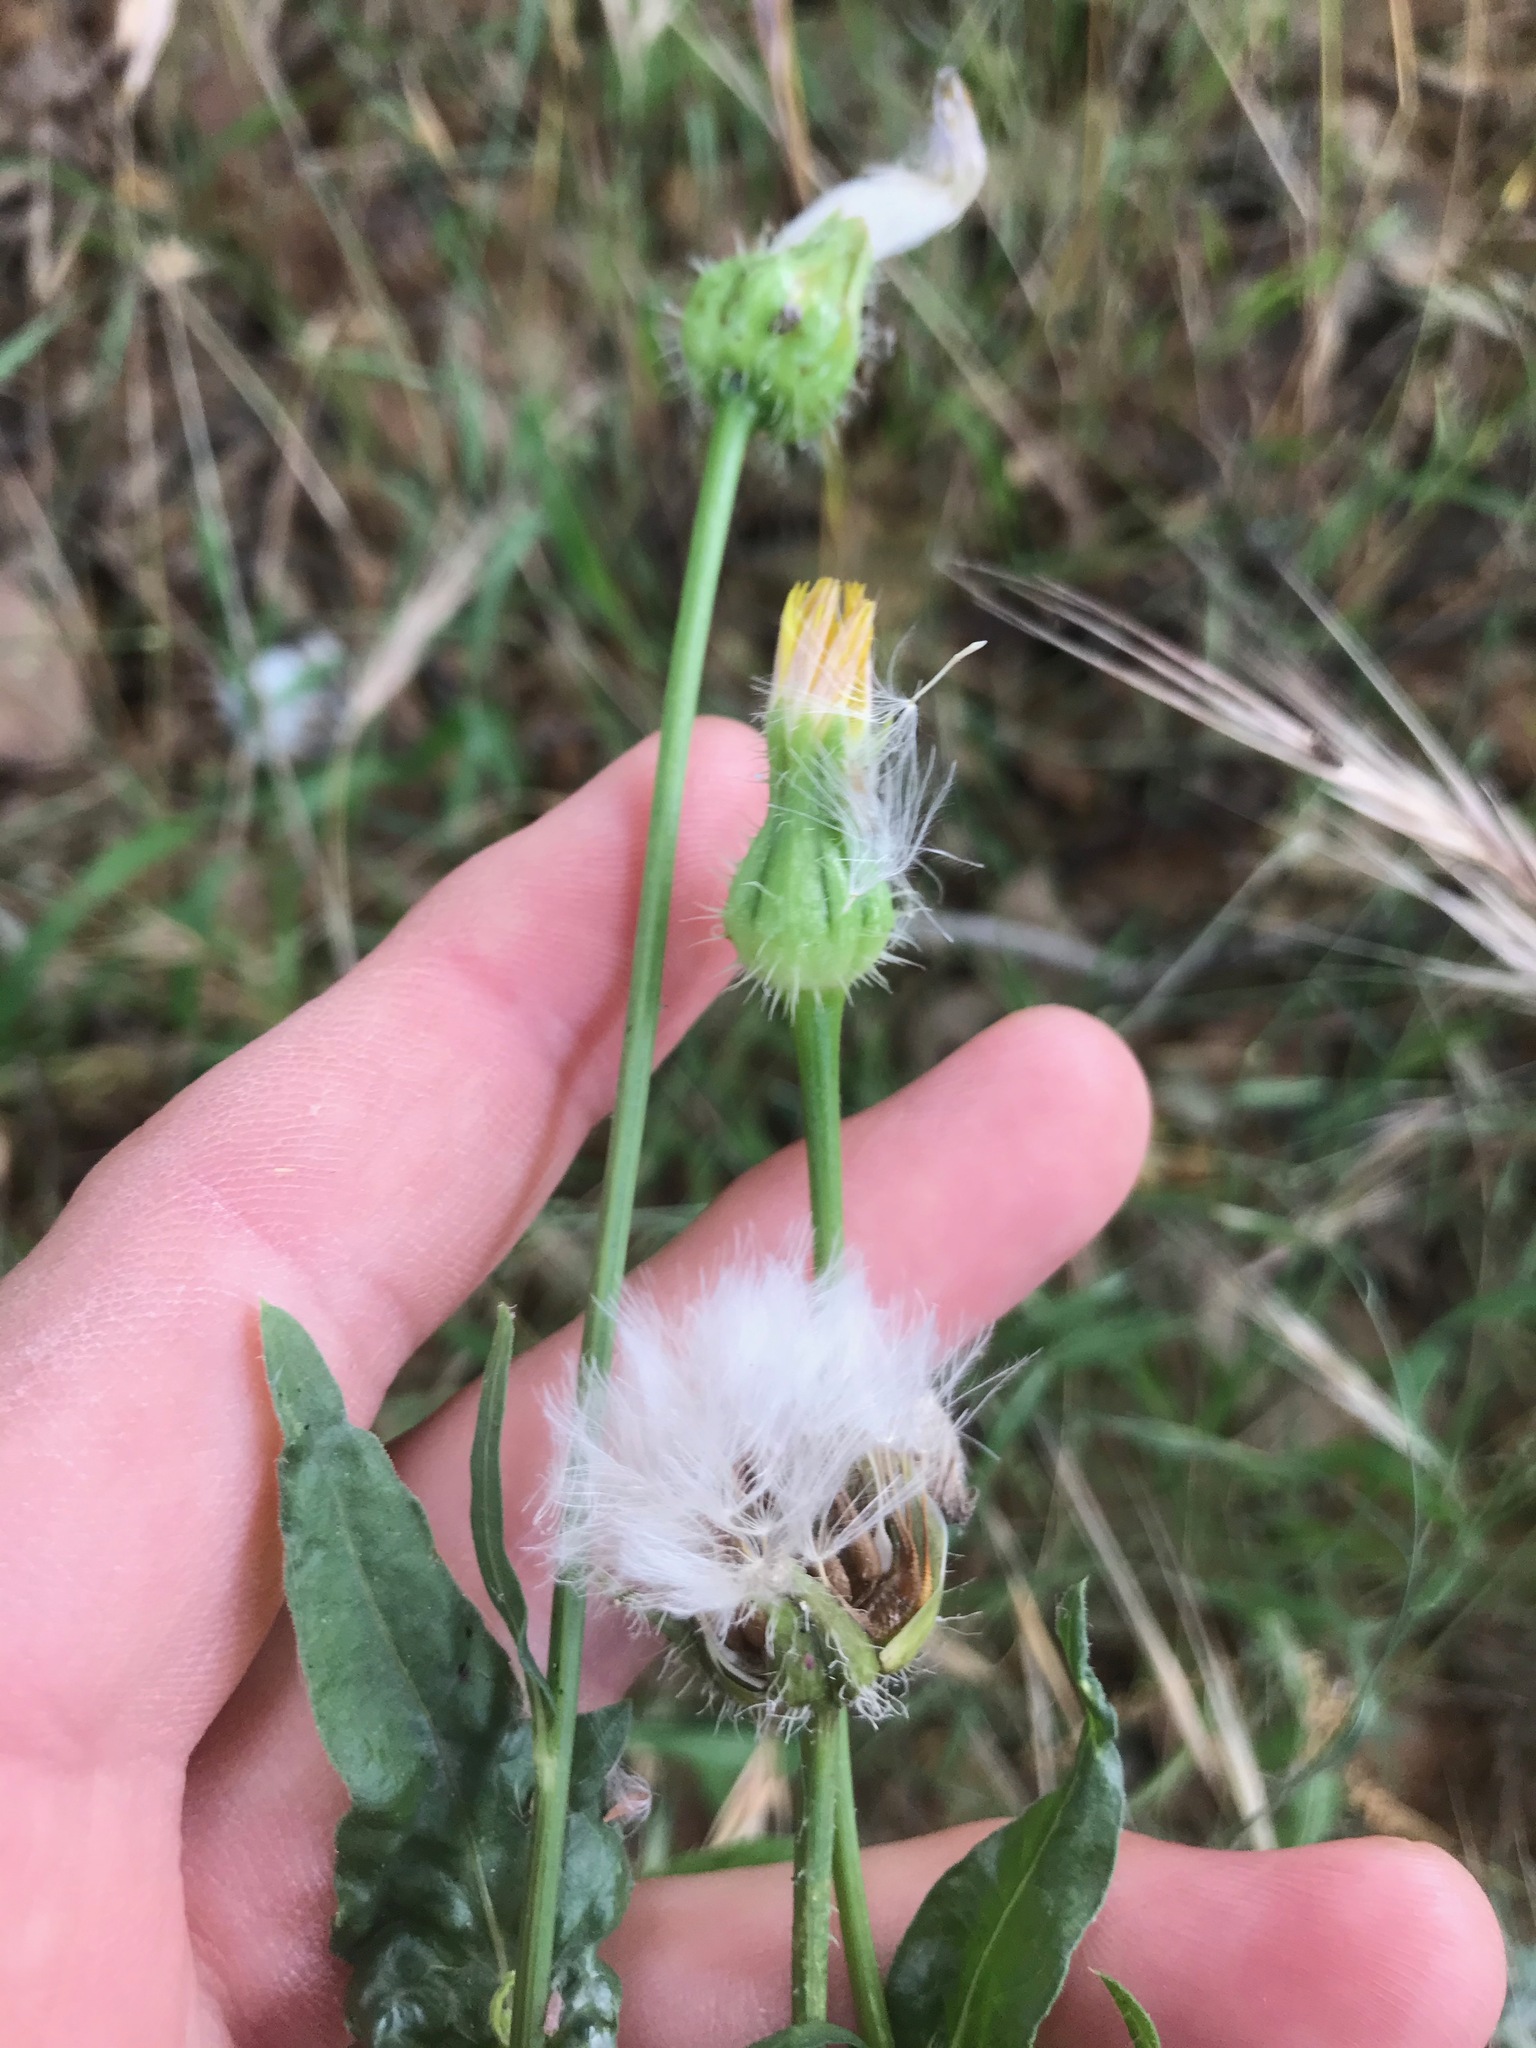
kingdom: Plantae
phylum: Tracheophyta
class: Magnoliopsida
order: Asterales
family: Asteraceae
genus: Urospermum
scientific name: Urospermum picroides
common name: False hawkbit
